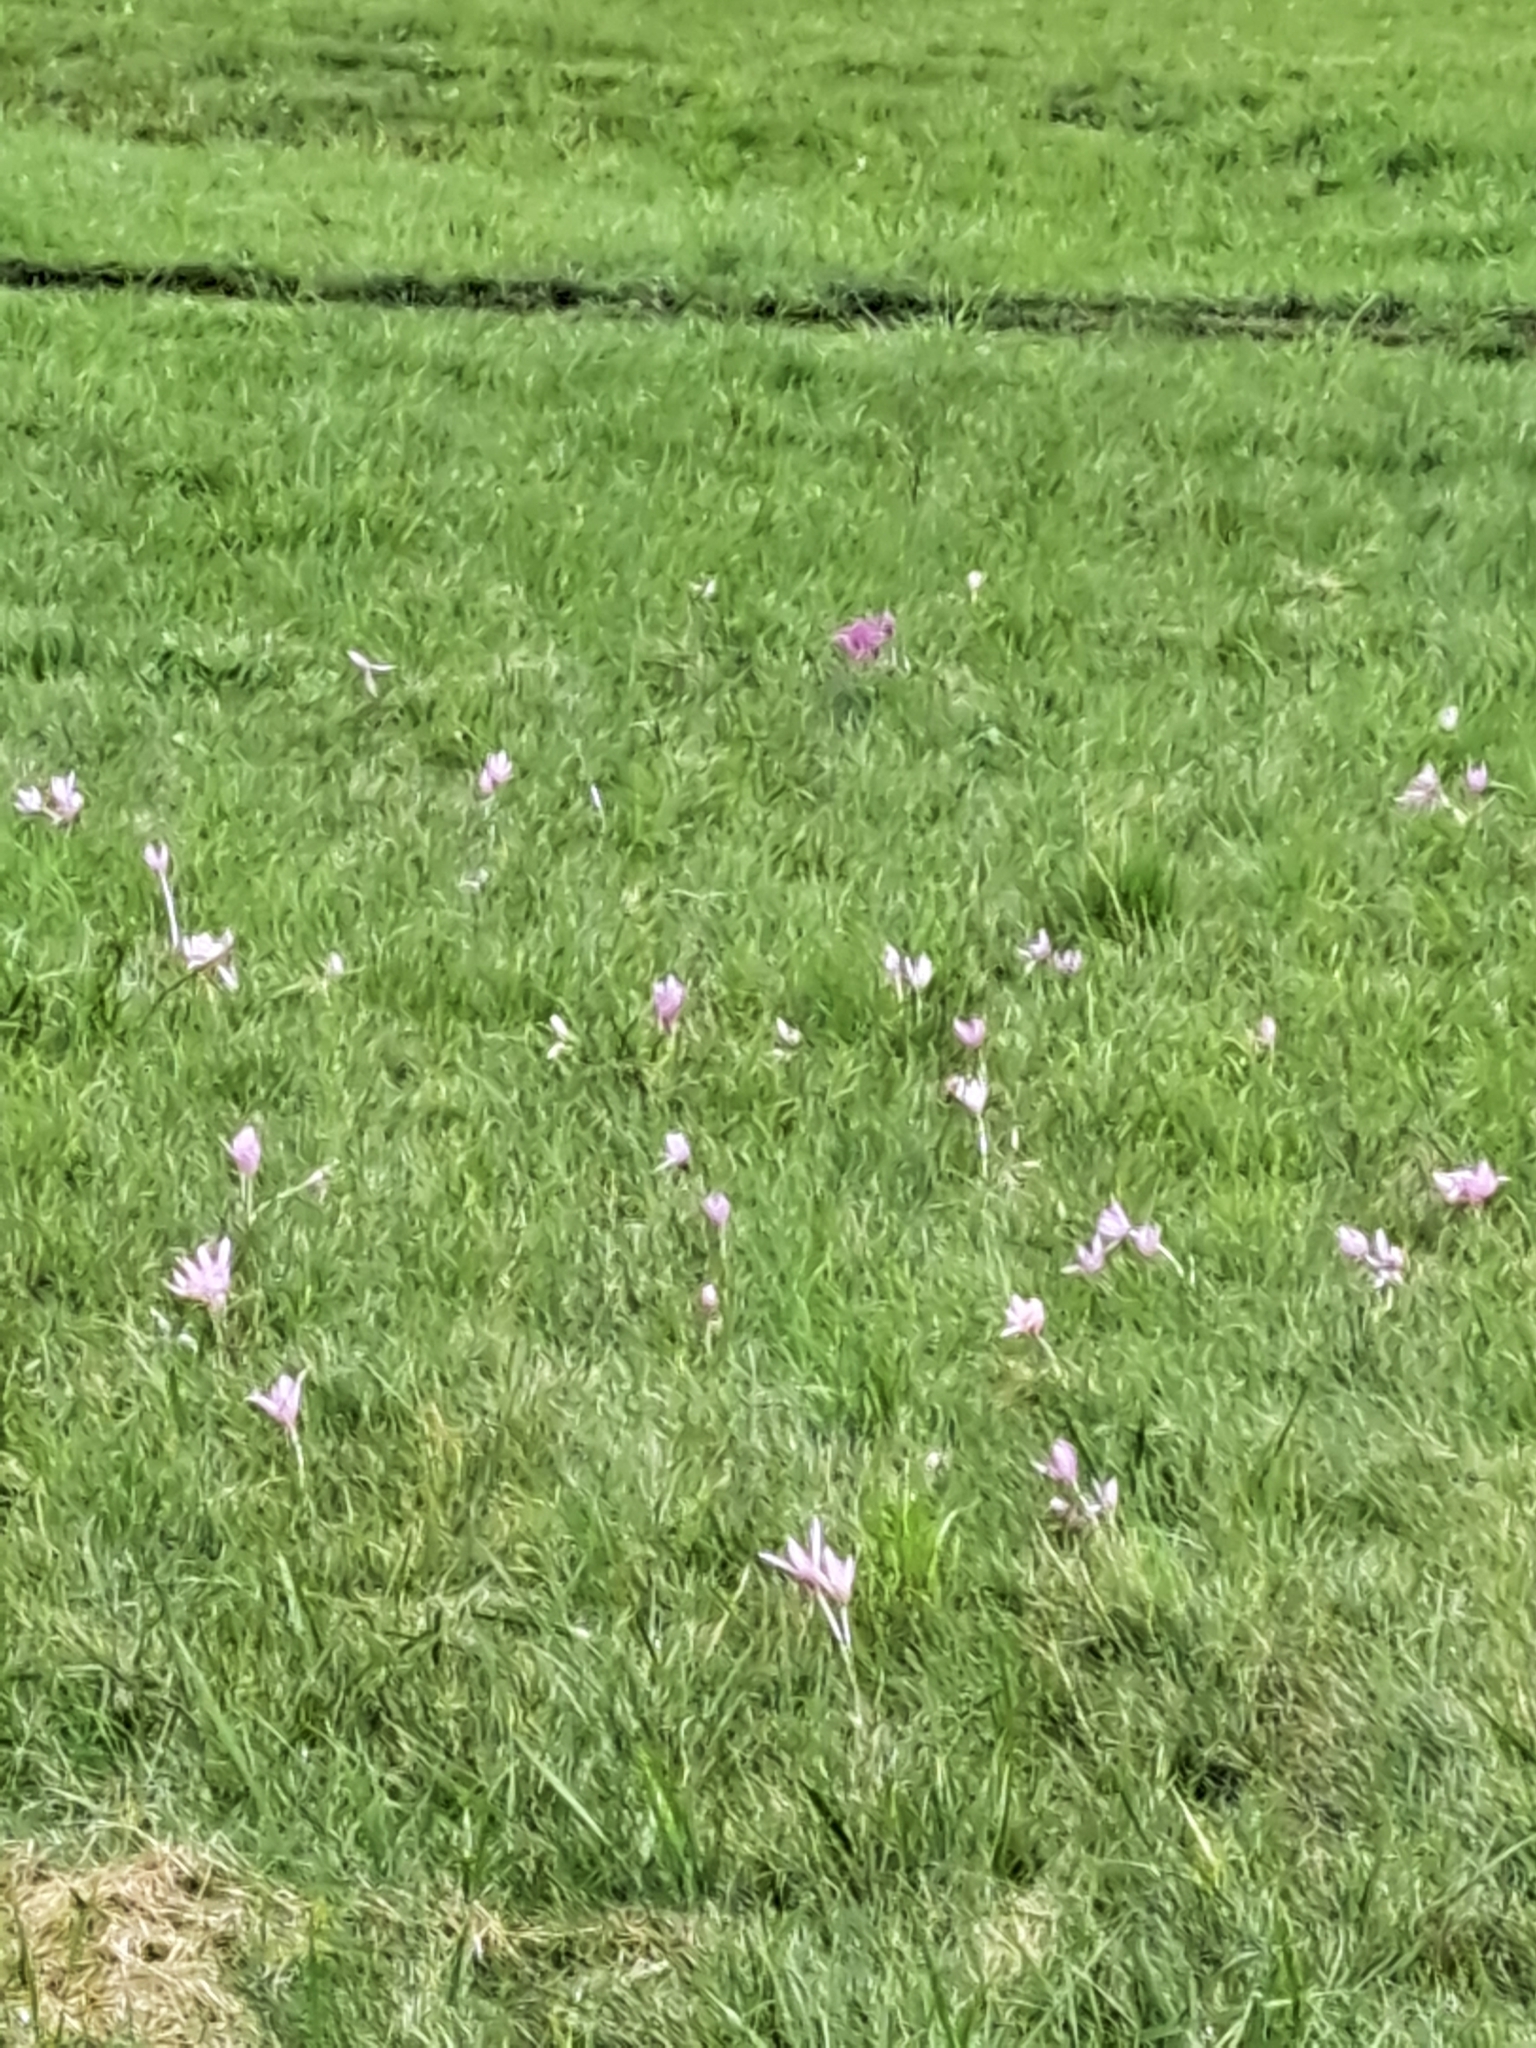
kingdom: Plantae
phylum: Tracheophyta
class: Liliopsida
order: Liliales
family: Colchicaceae
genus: Colchicum
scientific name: Colchicum autumnale
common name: Autumn crocus
